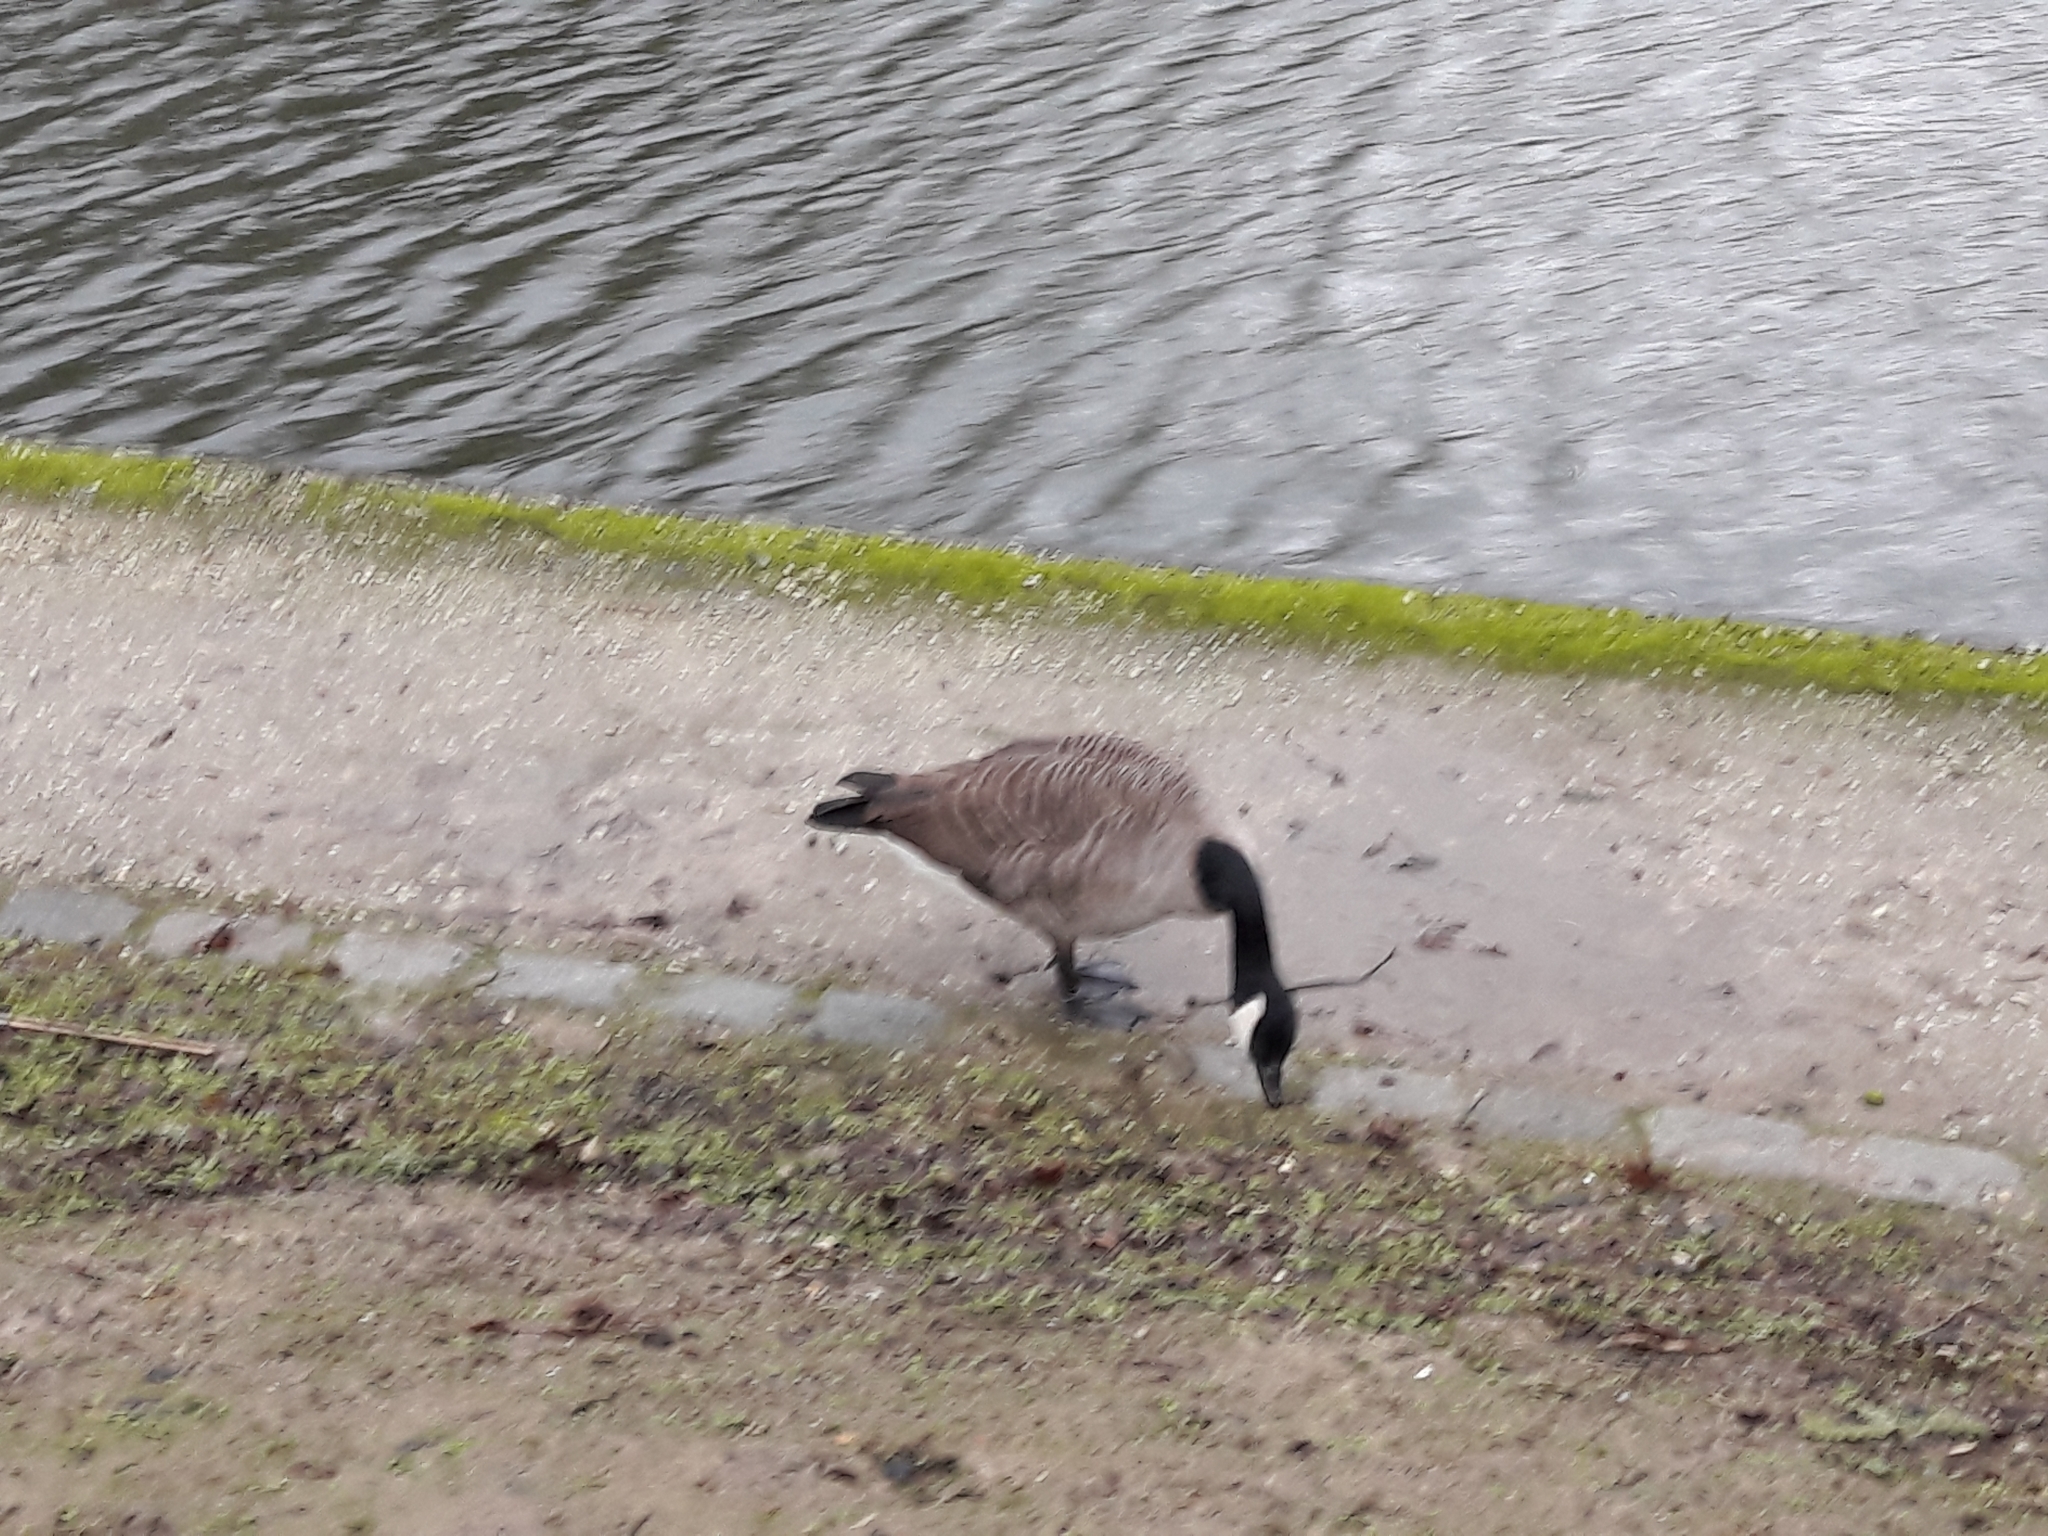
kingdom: Animalia
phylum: Chordata
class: Aves
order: Anseriformes
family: Anatidae
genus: Branta
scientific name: Branta canadensis
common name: Canada goose
